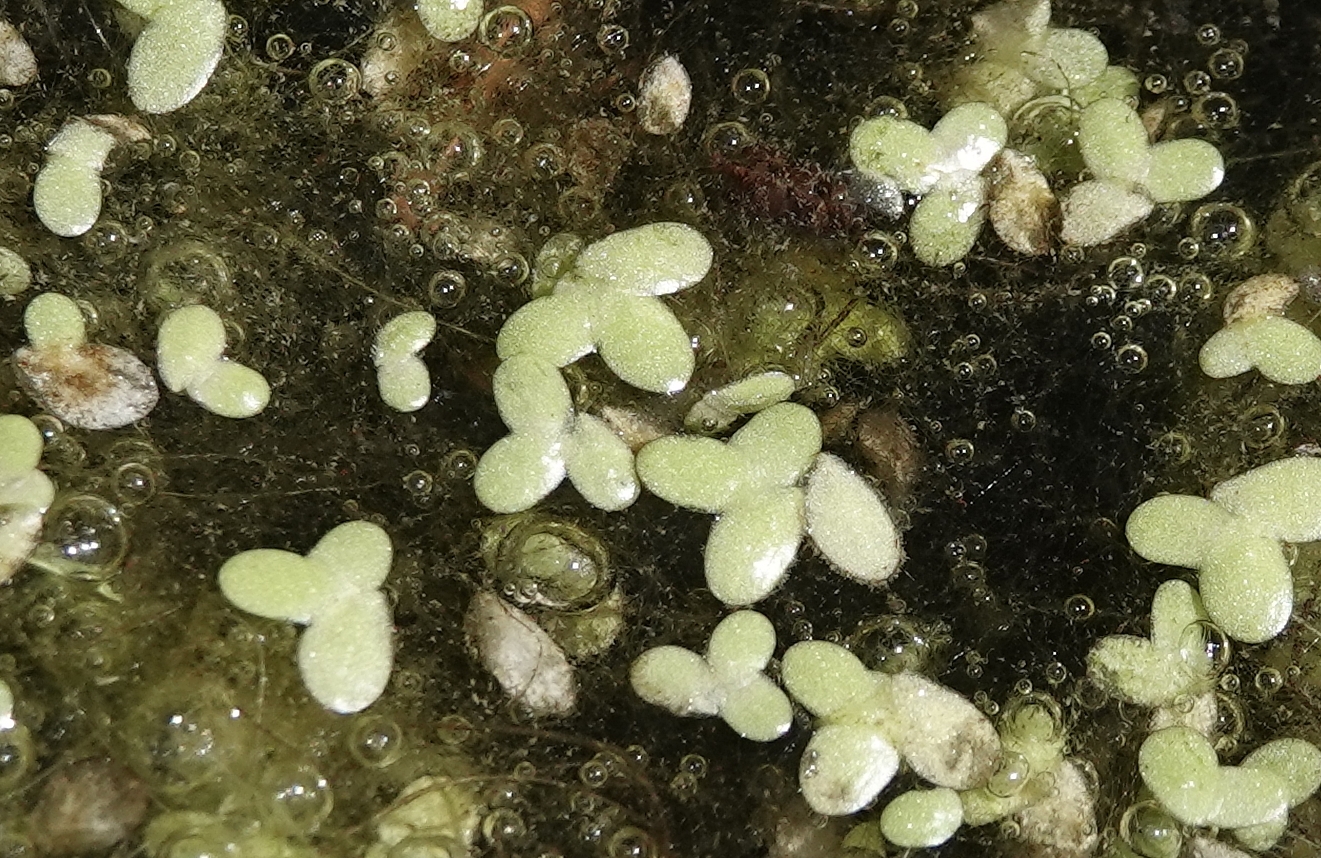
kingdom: Plantae
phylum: Tracheophyta
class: Liliopsida
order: Alismatales
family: Araceae
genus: Lemna
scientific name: Lemna minor
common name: Common duckweed
